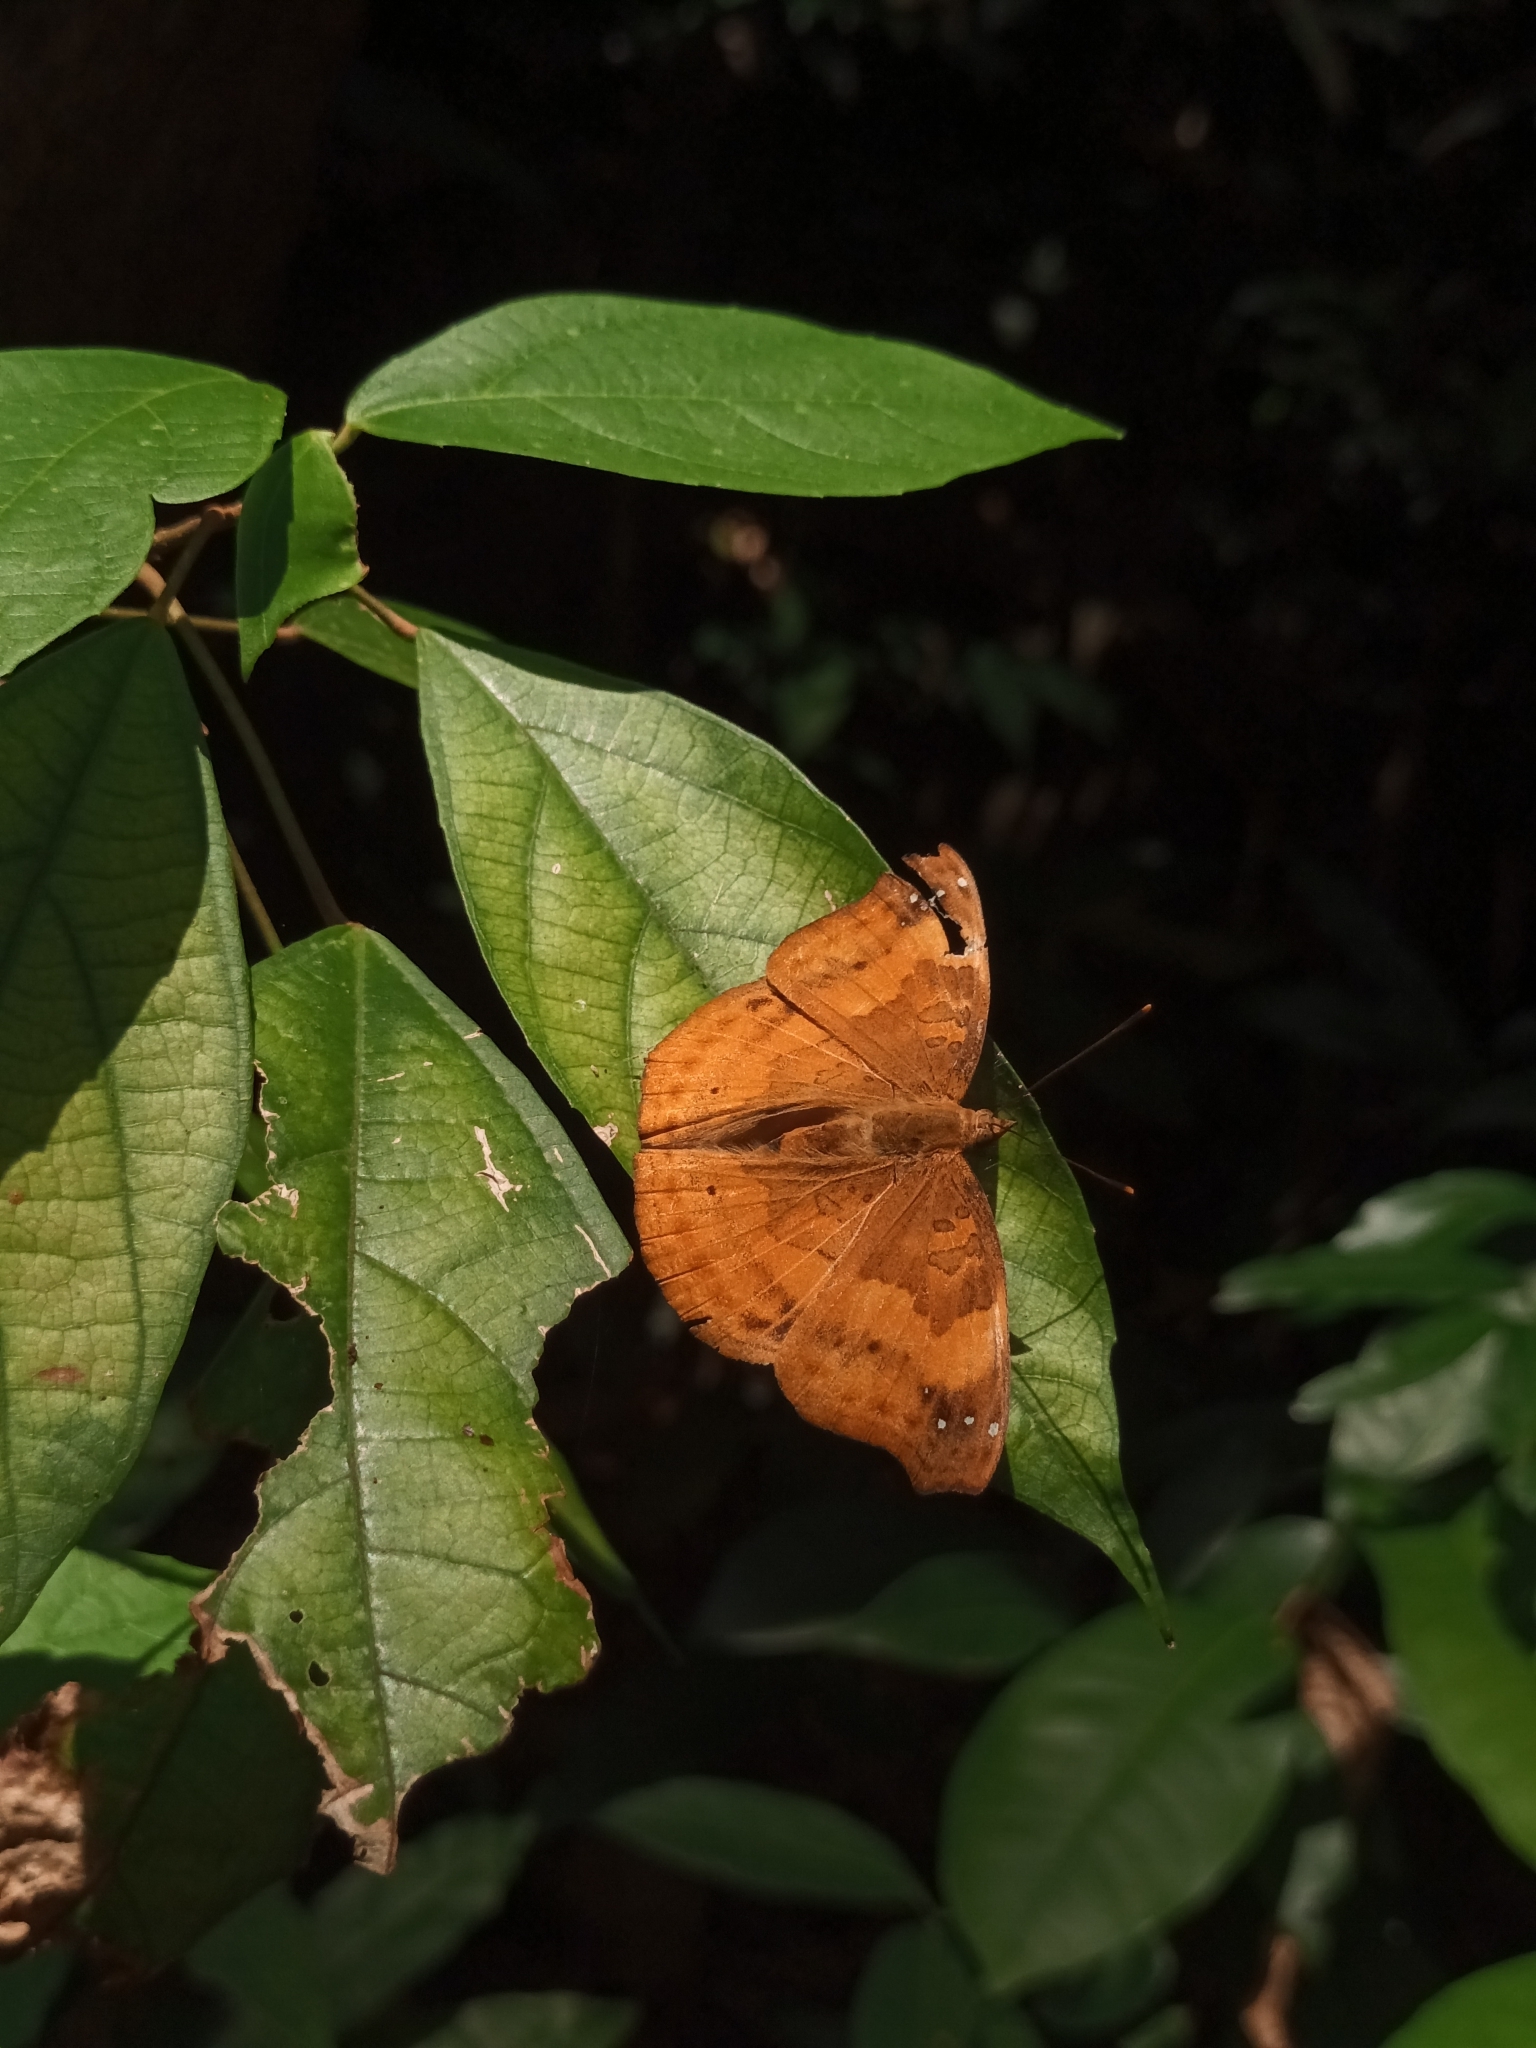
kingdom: Animalia
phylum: Arthropoda
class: Insecta
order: Lepidoptera
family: Nymphalidae
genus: Apatura
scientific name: Apatura Rohana spec
